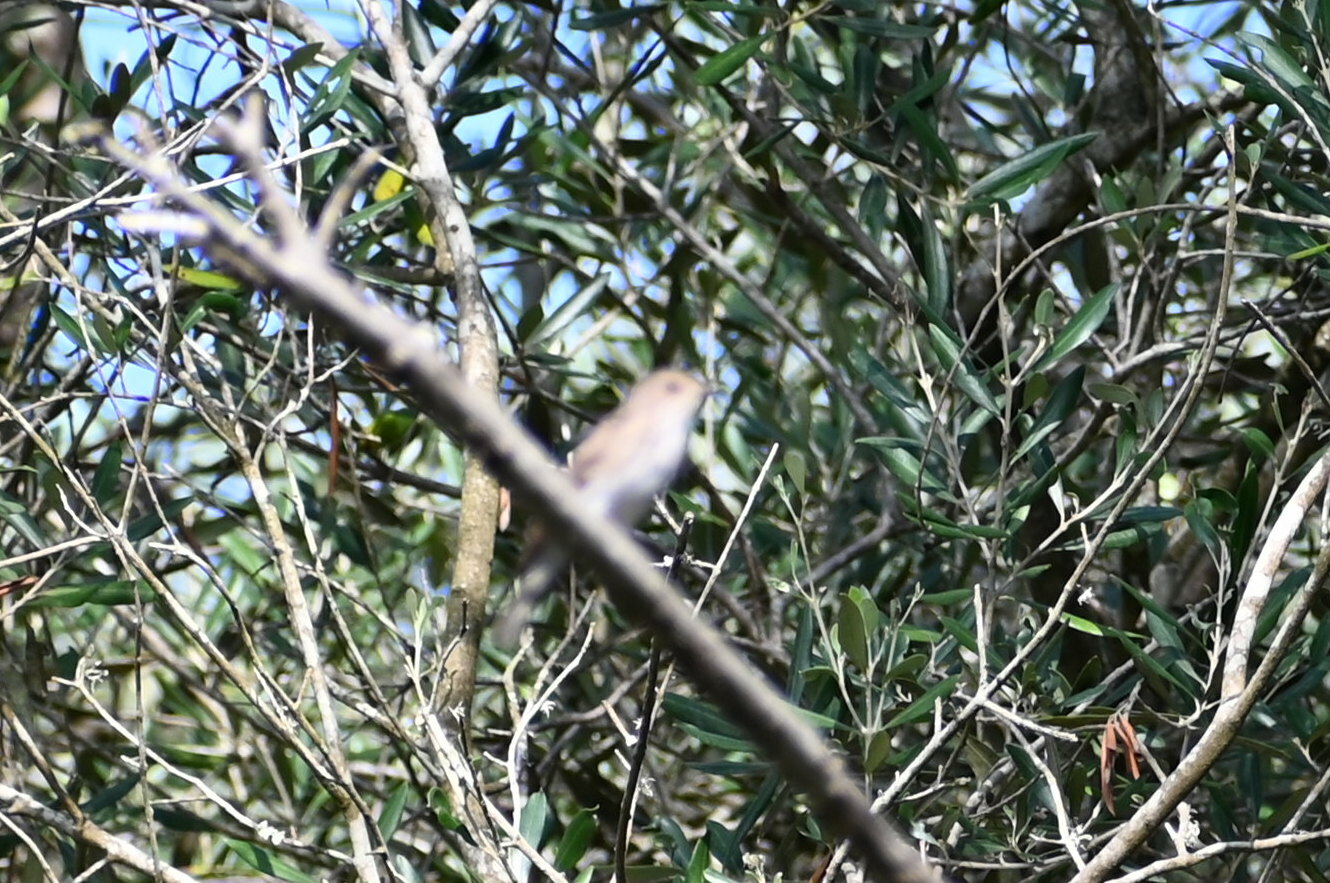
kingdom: Animalia
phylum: Chordata
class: Aves
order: Passeriformes
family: Muscicapidae
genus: Muscicapa
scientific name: Muscicapa striata
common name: Spotted flycatcher
